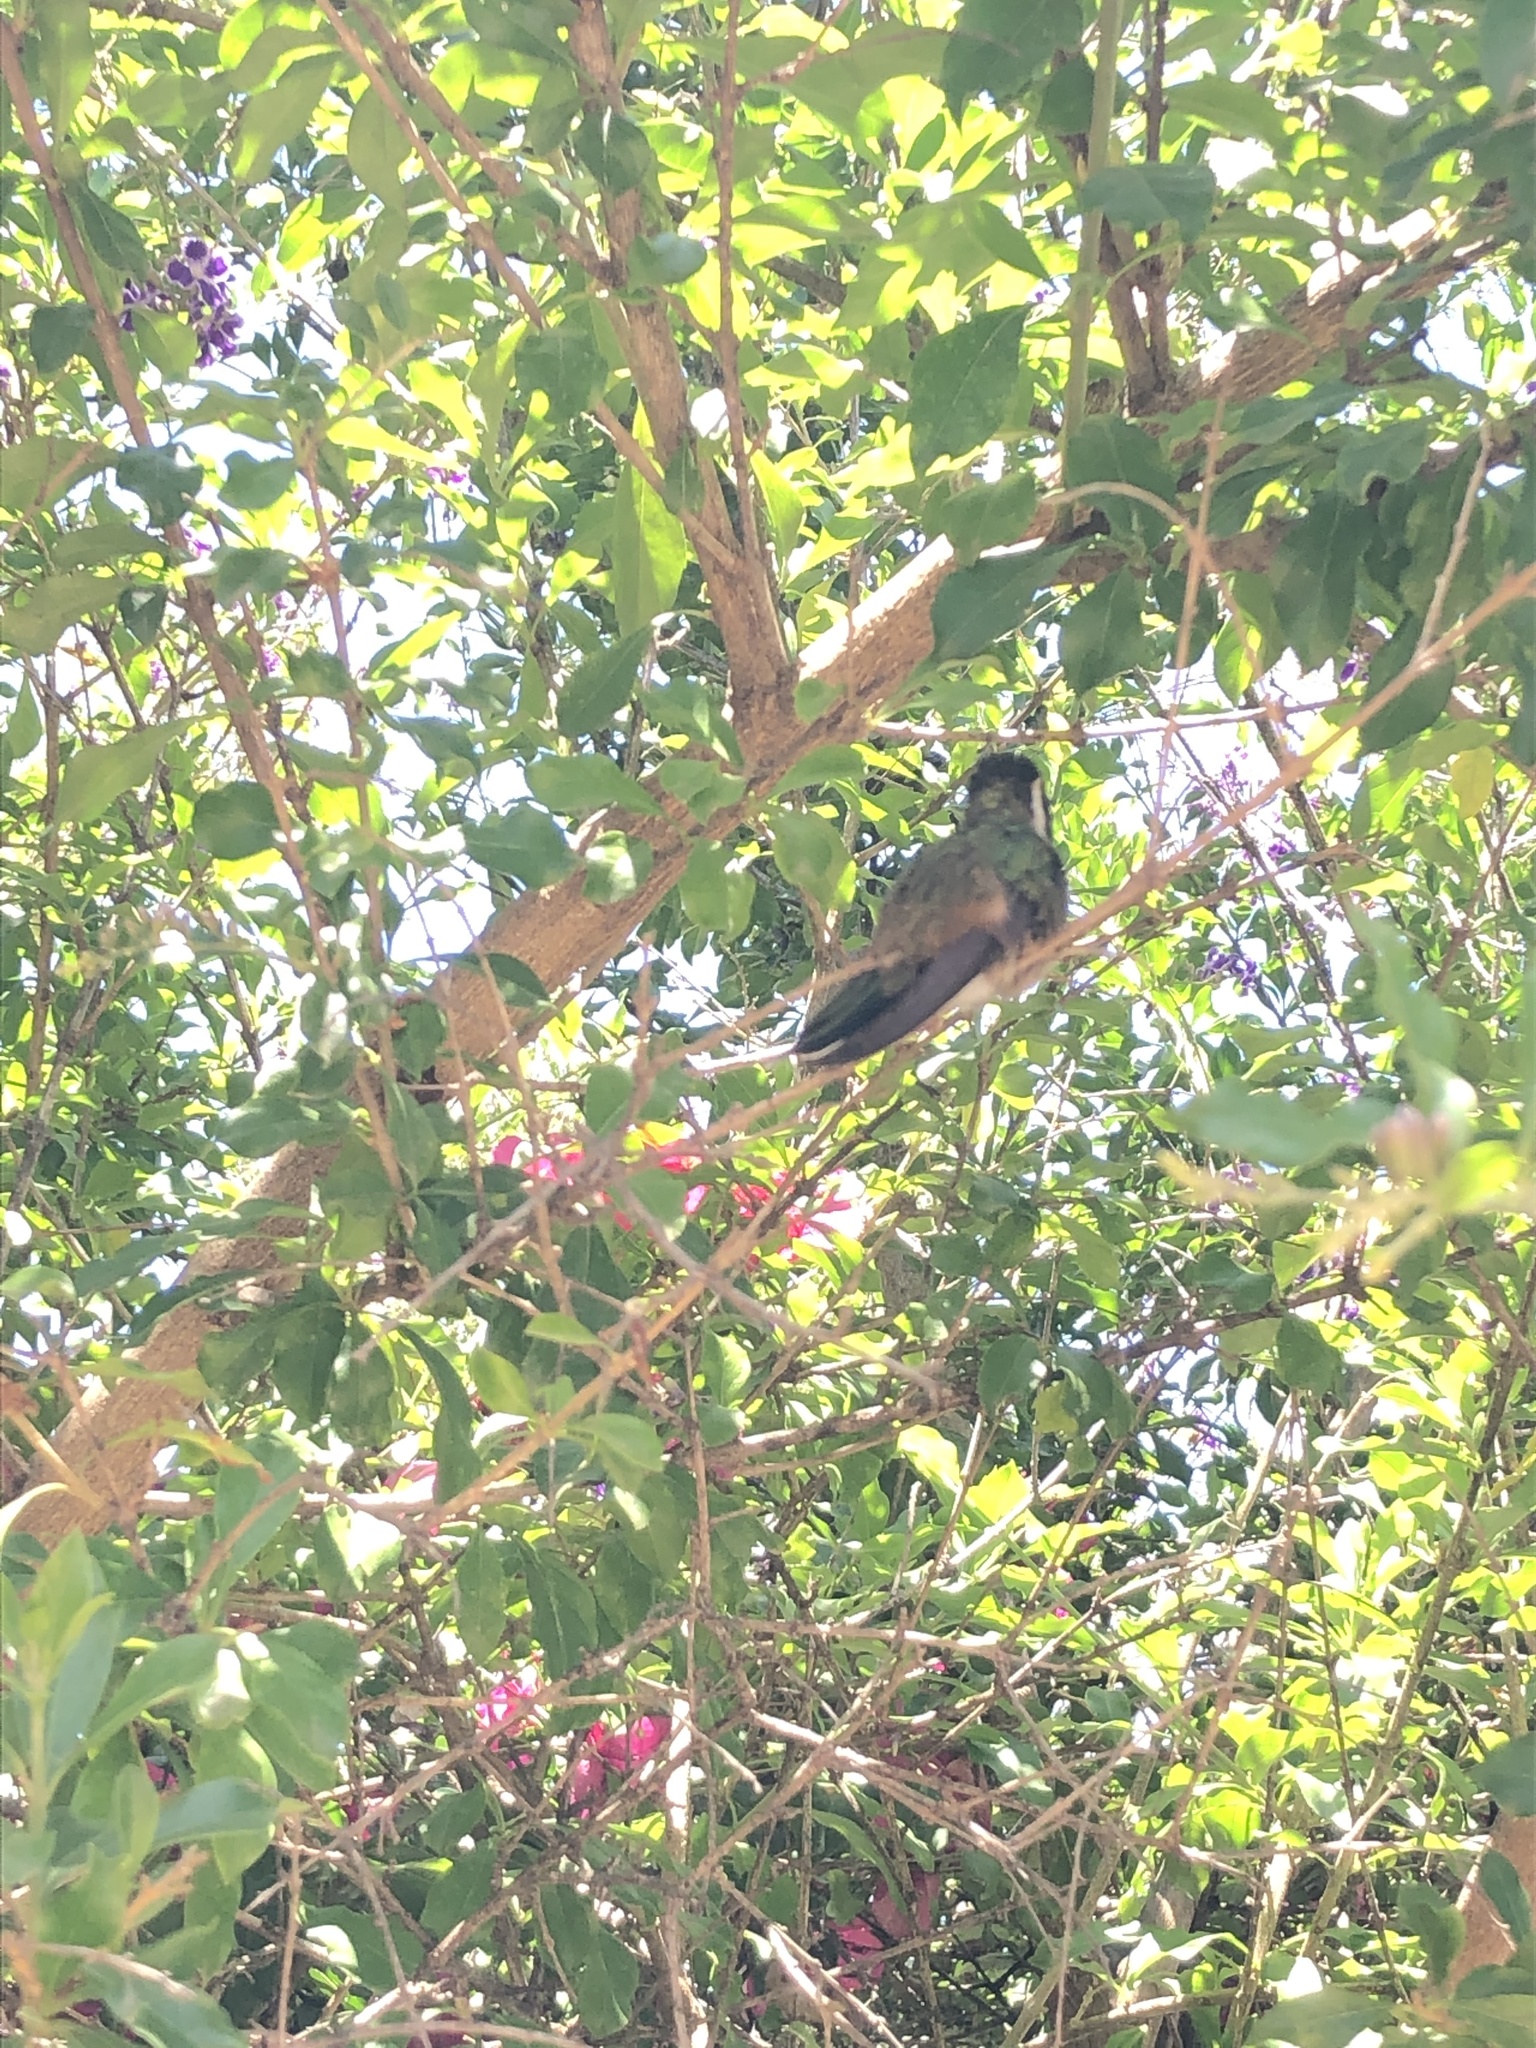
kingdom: Animalia
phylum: Chordata
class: Aves
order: Apodiformes
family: Trochilidae
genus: Basilinna
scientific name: Basilinna leucotis
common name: White-eared hummingbird
